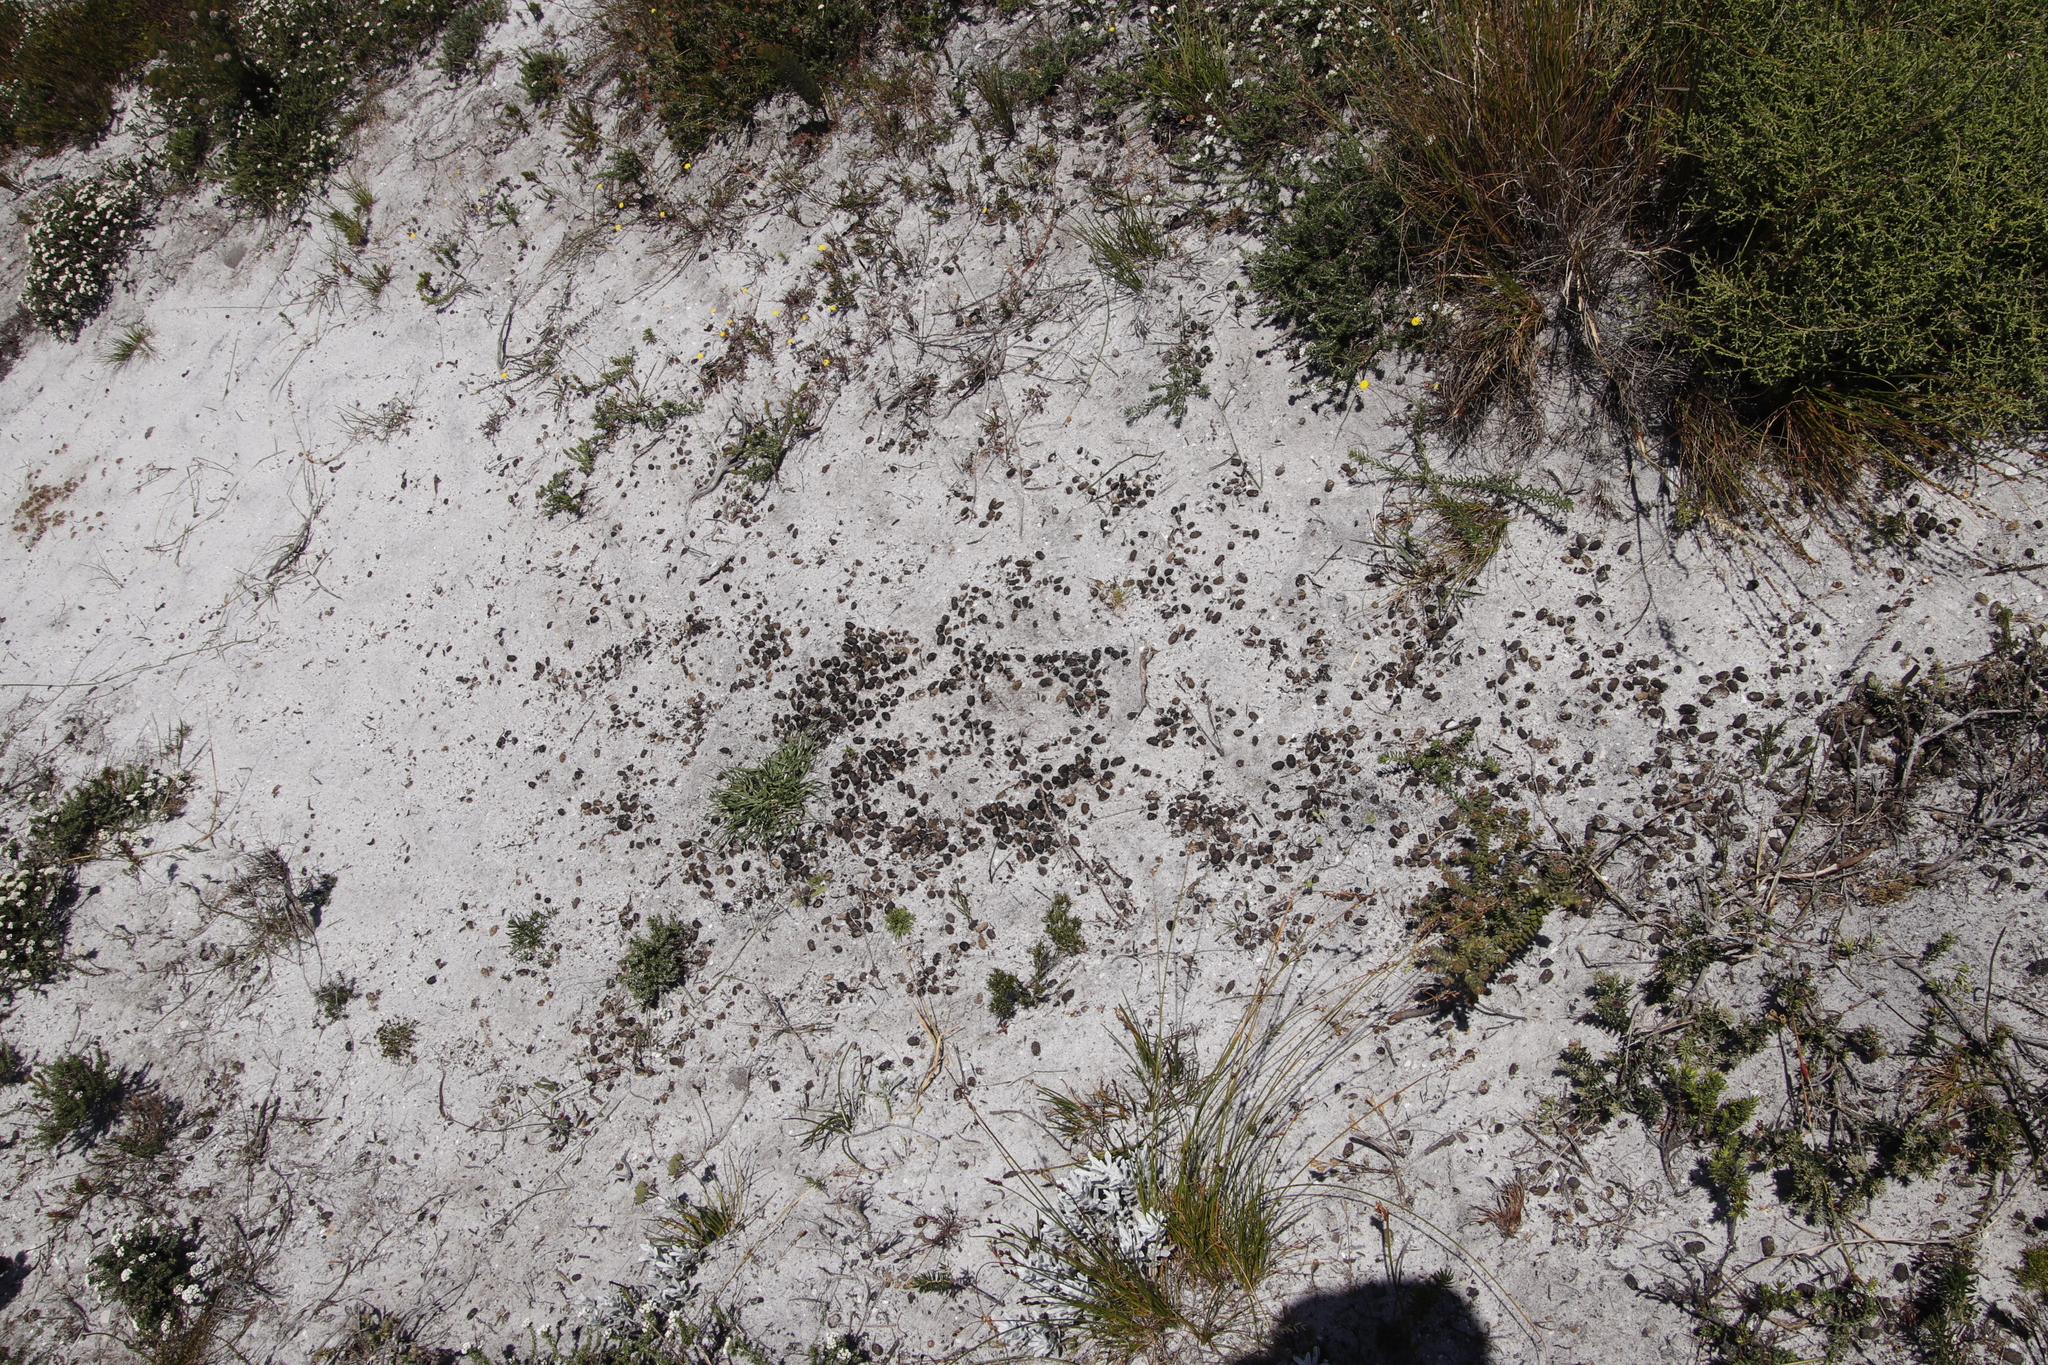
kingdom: Animalia
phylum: Chordata
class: Mammalia
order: Artiodactyla
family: Bovidae
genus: Damaliscus
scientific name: Damaliscus pygargus
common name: Bontebok
